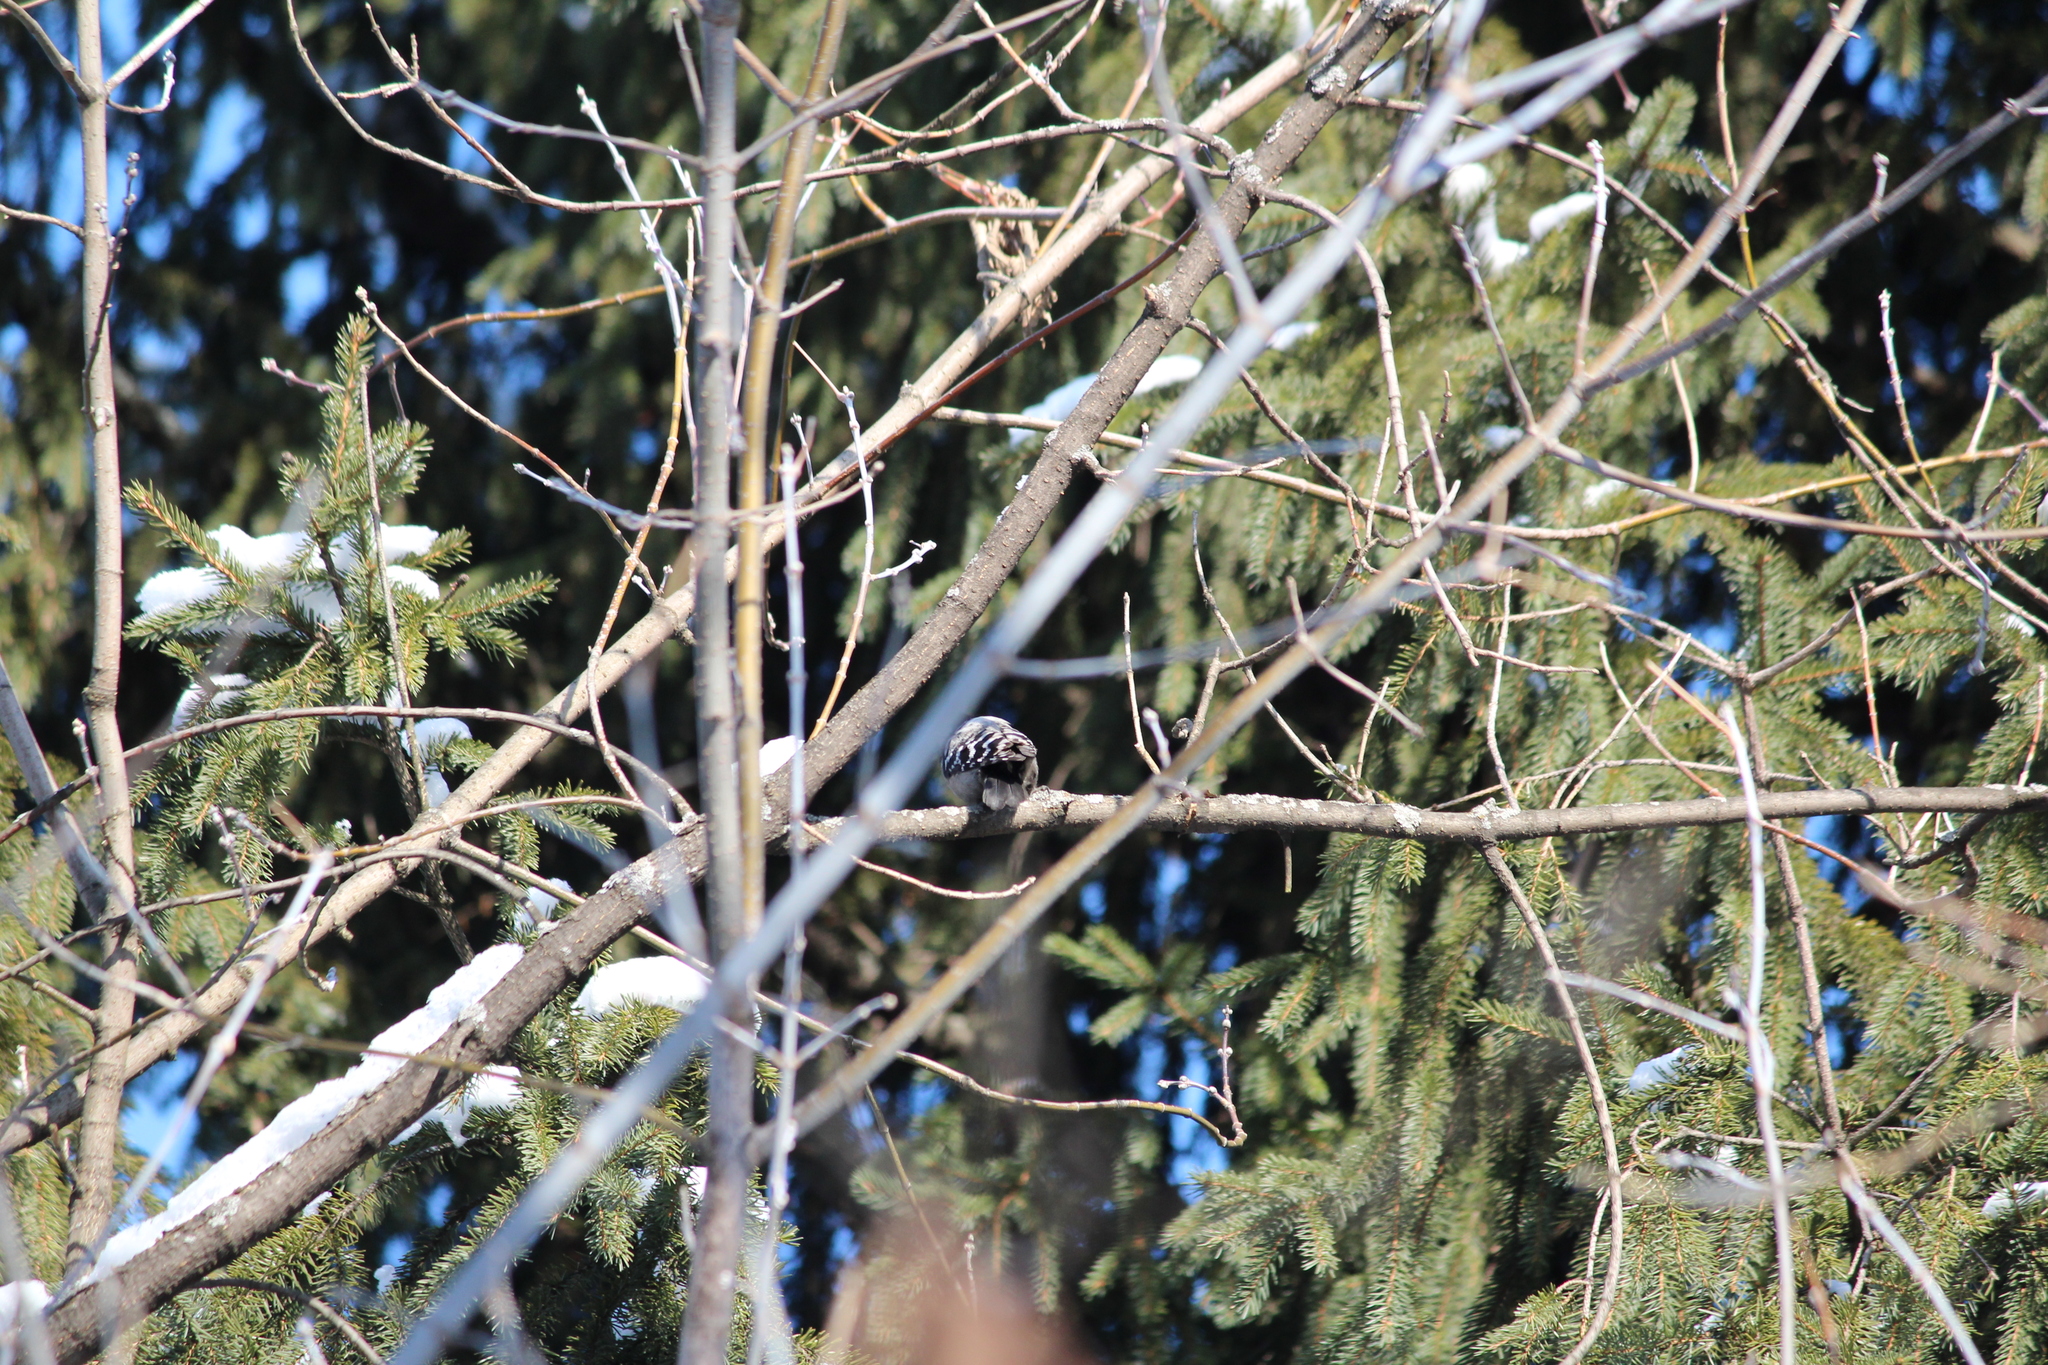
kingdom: Animalia
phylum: Chordata
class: Aves
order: Piciformes
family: Picidae
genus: Dryobates
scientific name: Dryobates minor
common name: Lesser spotted woodpecker
